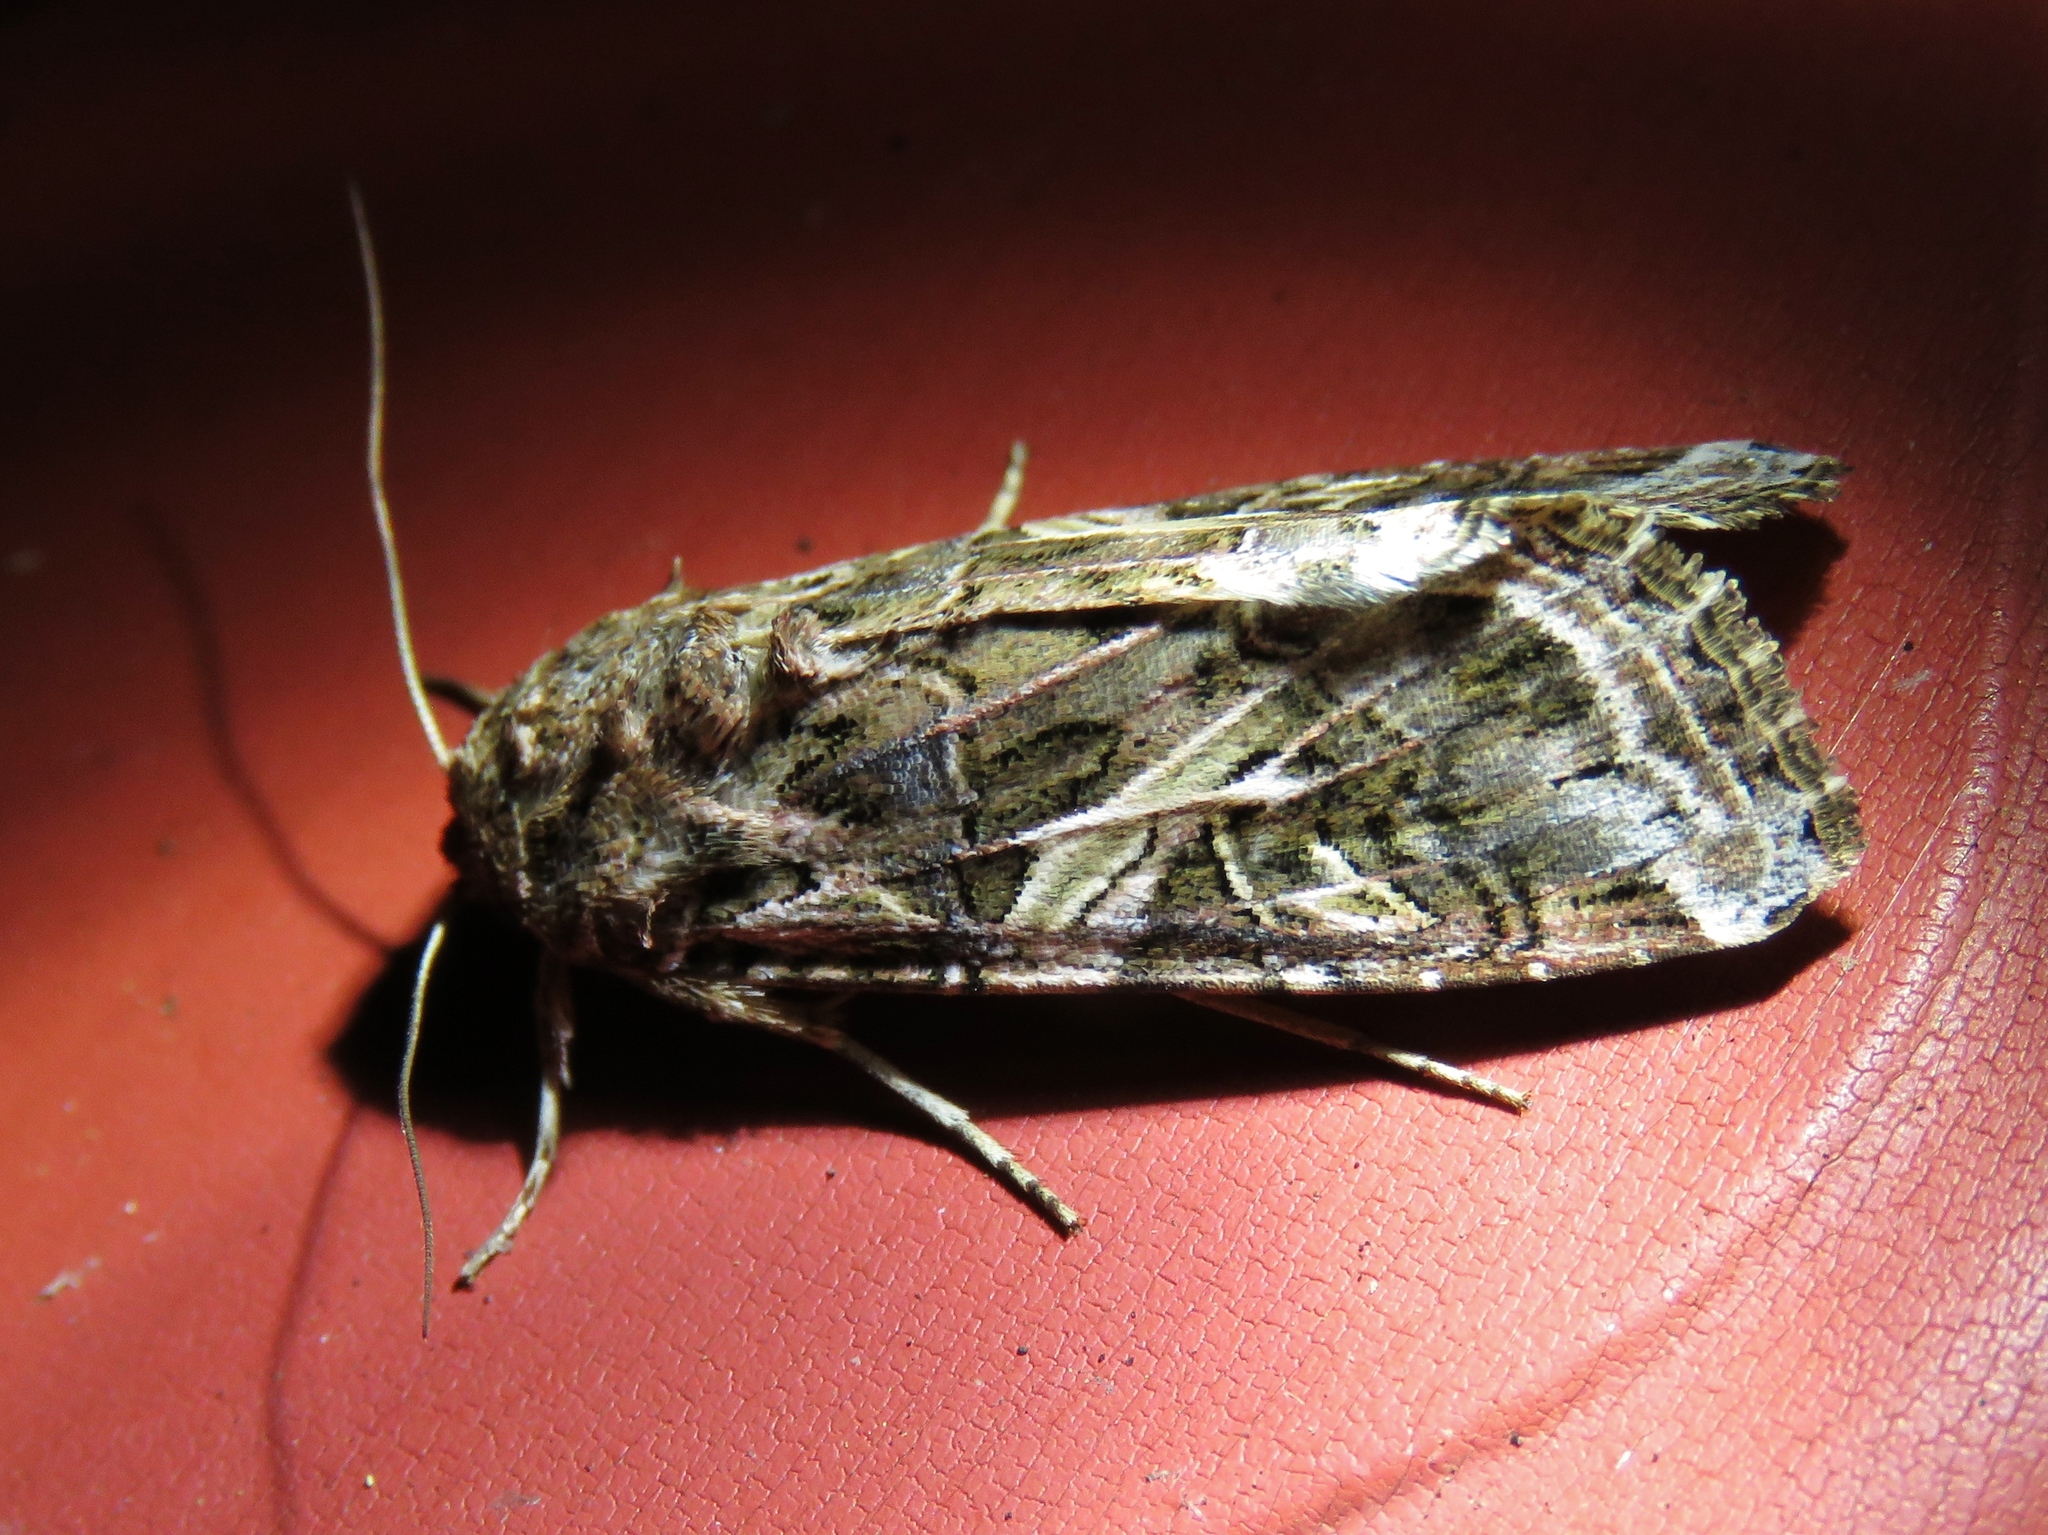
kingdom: Animalia
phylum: Arthropoda
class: Insecta
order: Lepidoptera
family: Noctuidae
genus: Spodoptera
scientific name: Spodoptera ornithogalli
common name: Yellow-striped armyworm
